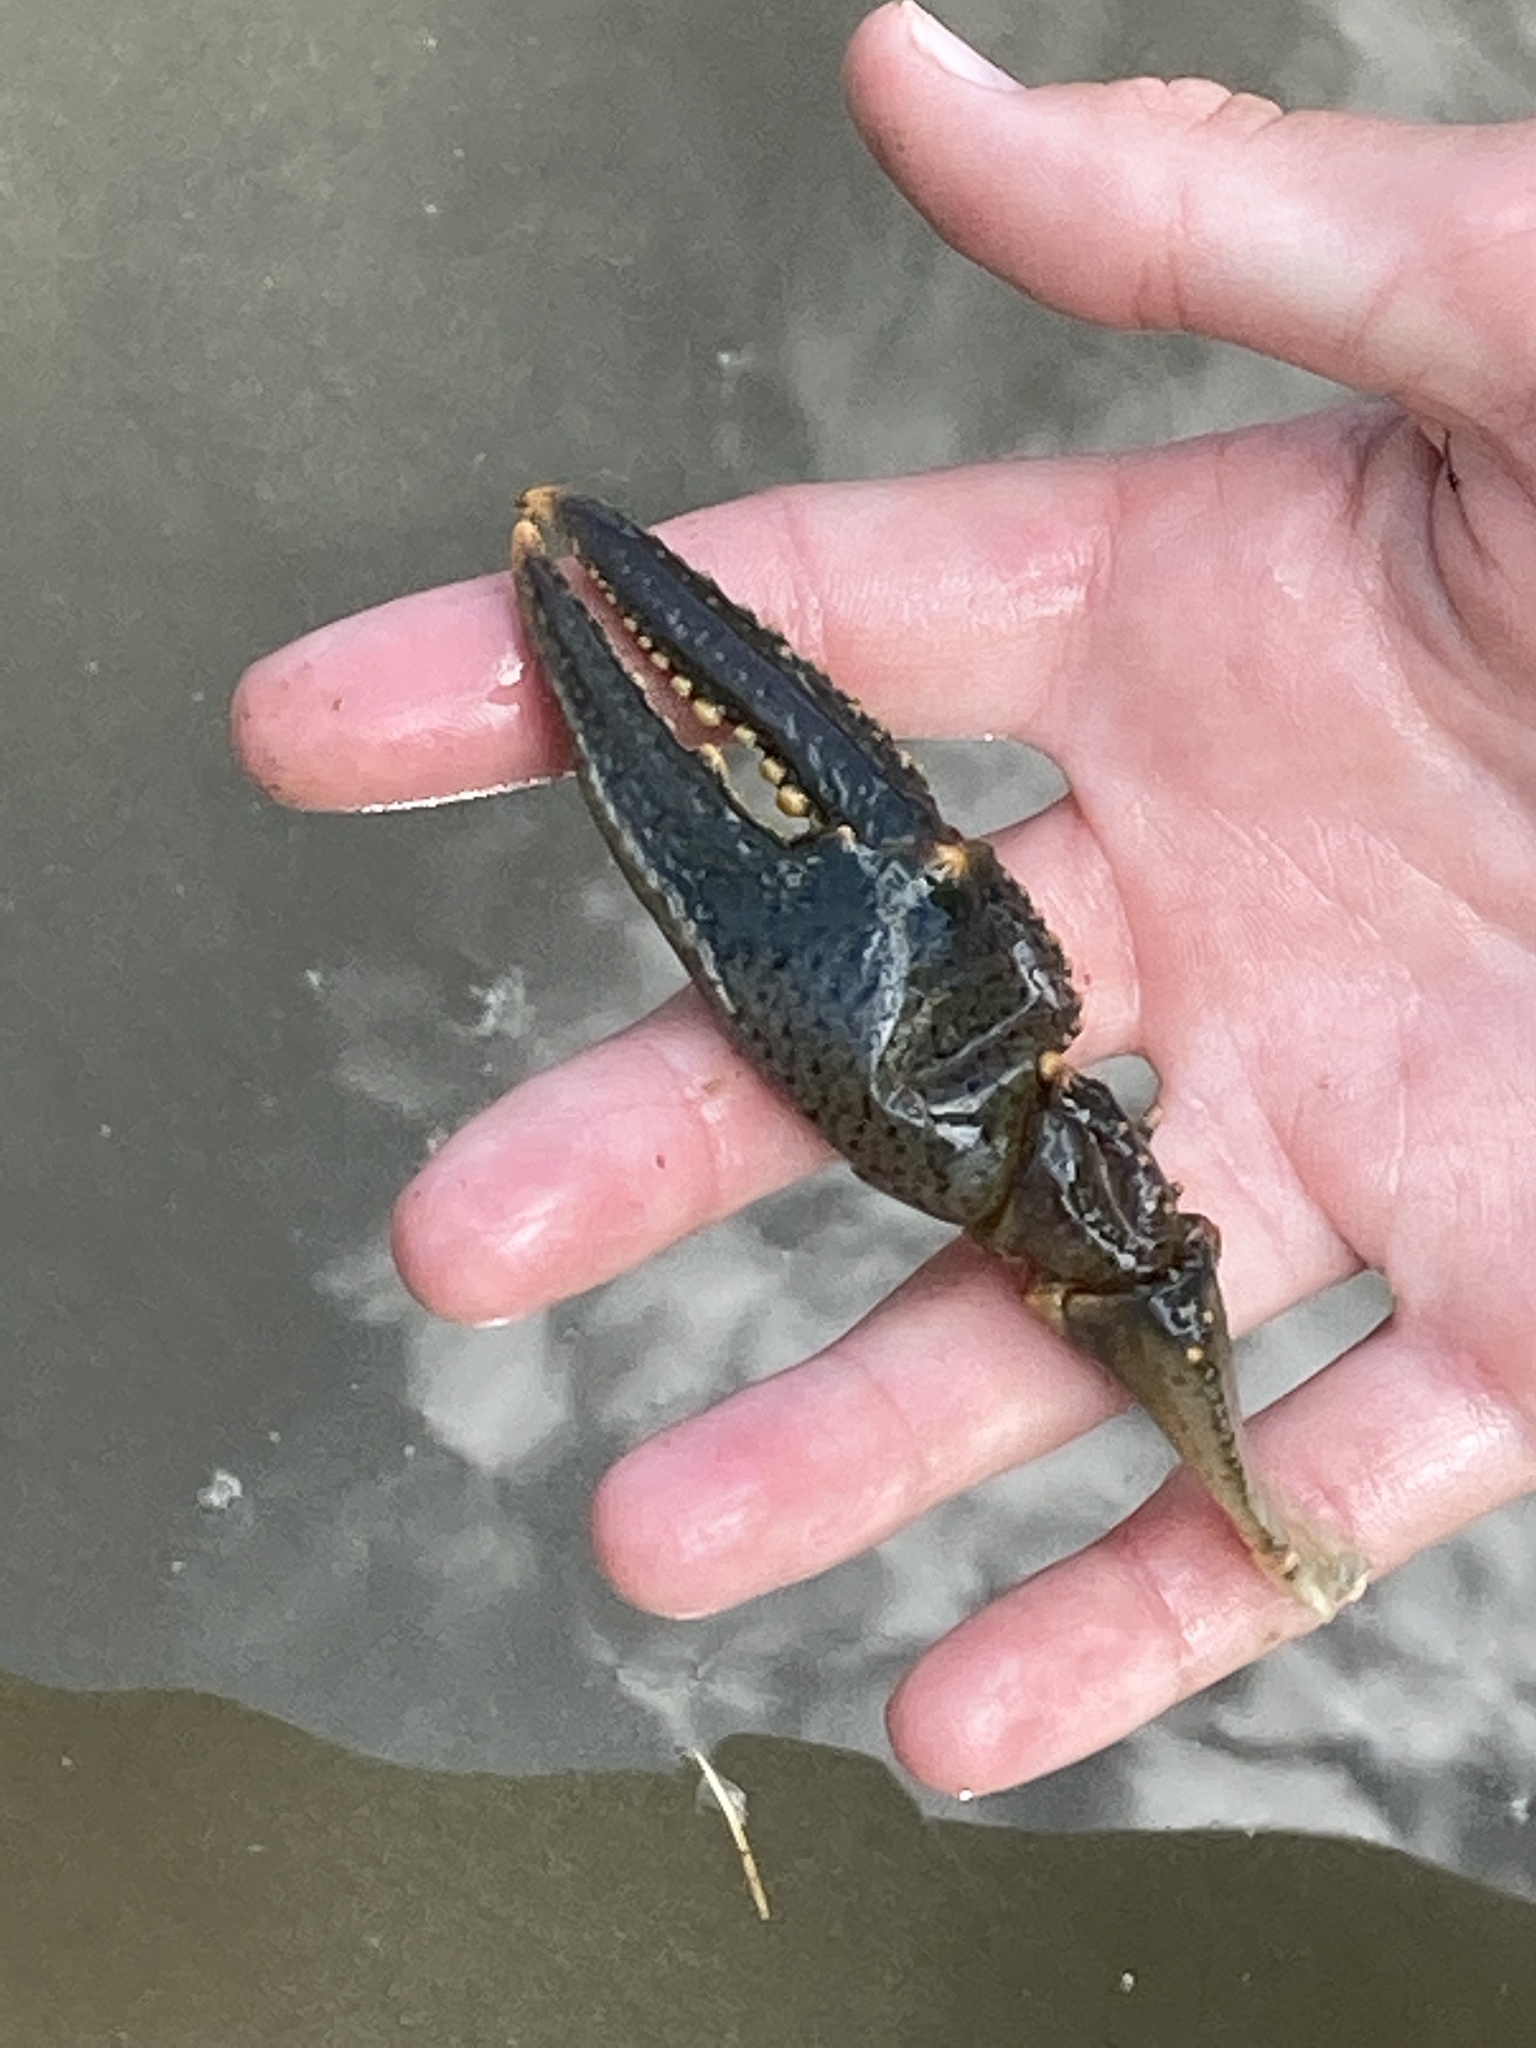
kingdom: Animalia
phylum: Arthropoda
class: Malacostraca
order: Decapoda
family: Cambaridae
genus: Faxonius
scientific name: Faxonius virilis
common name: Virile crayfish
